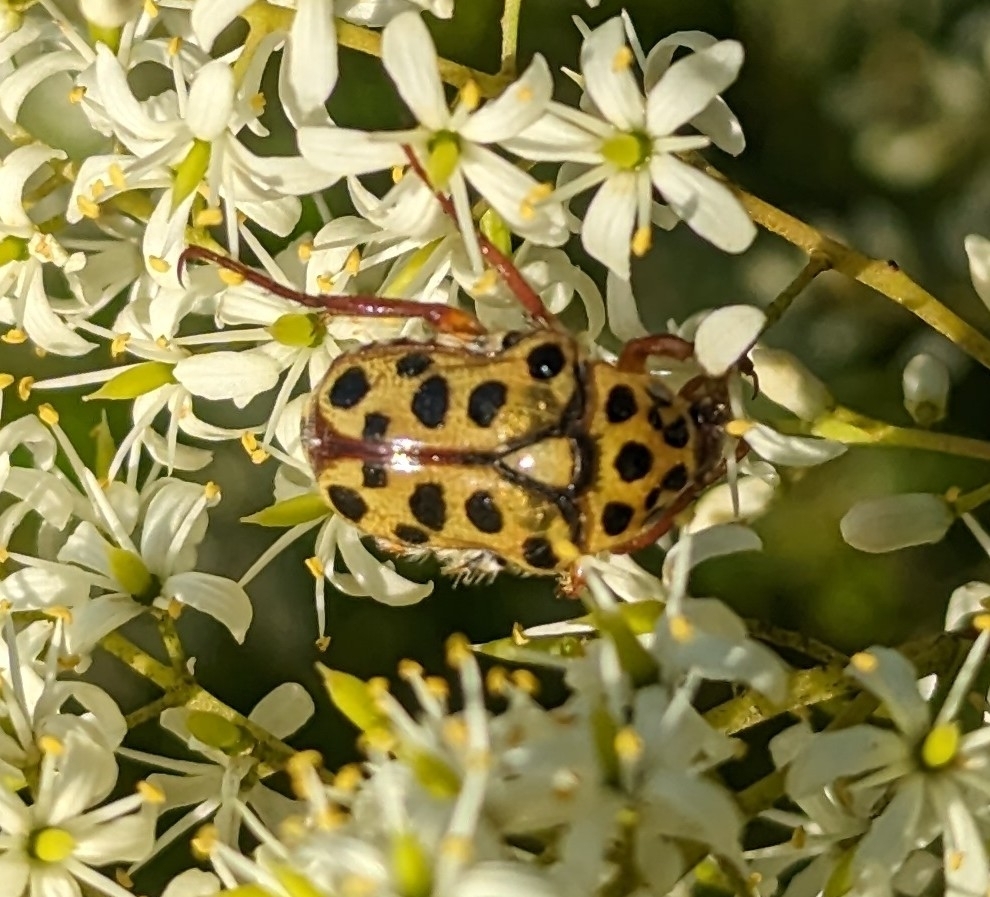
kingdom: Animalia
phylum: Arthropoda
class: Insecta
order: Coleoptera
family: Scarabaeidae
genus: Neorrhina
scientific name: Neorrhina punctatum
